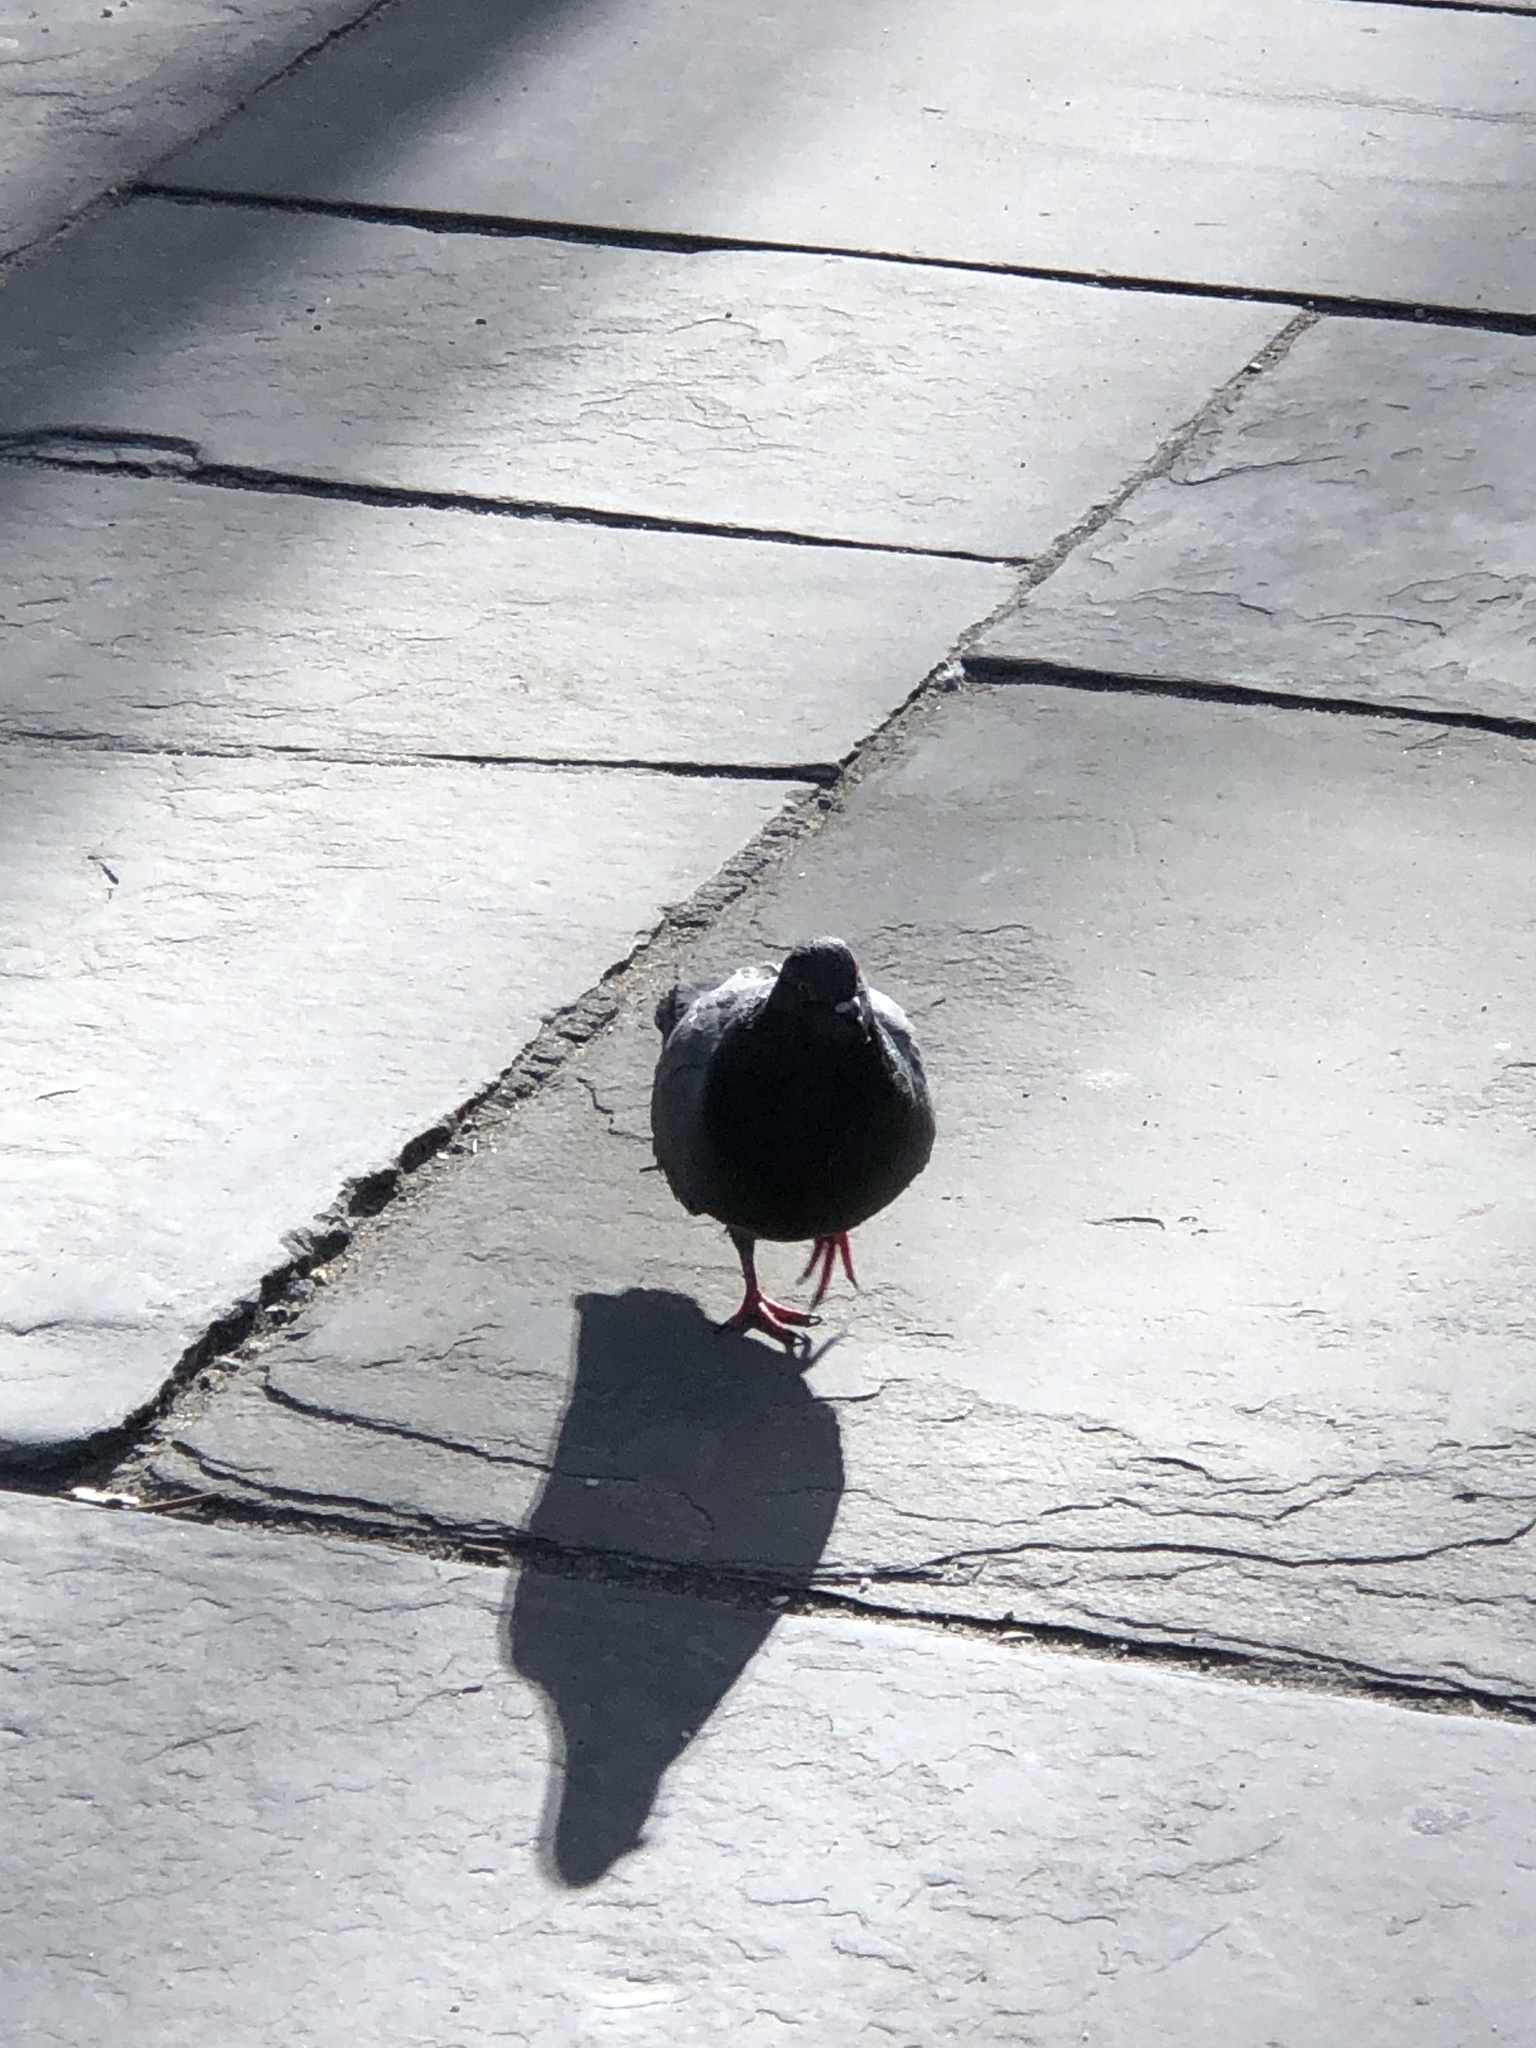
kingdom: Animalia
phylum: Chordata
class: Aves
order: Columbiformes
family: Columbidae
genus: Columba
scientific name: Columba livia
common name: Rock pigeon
